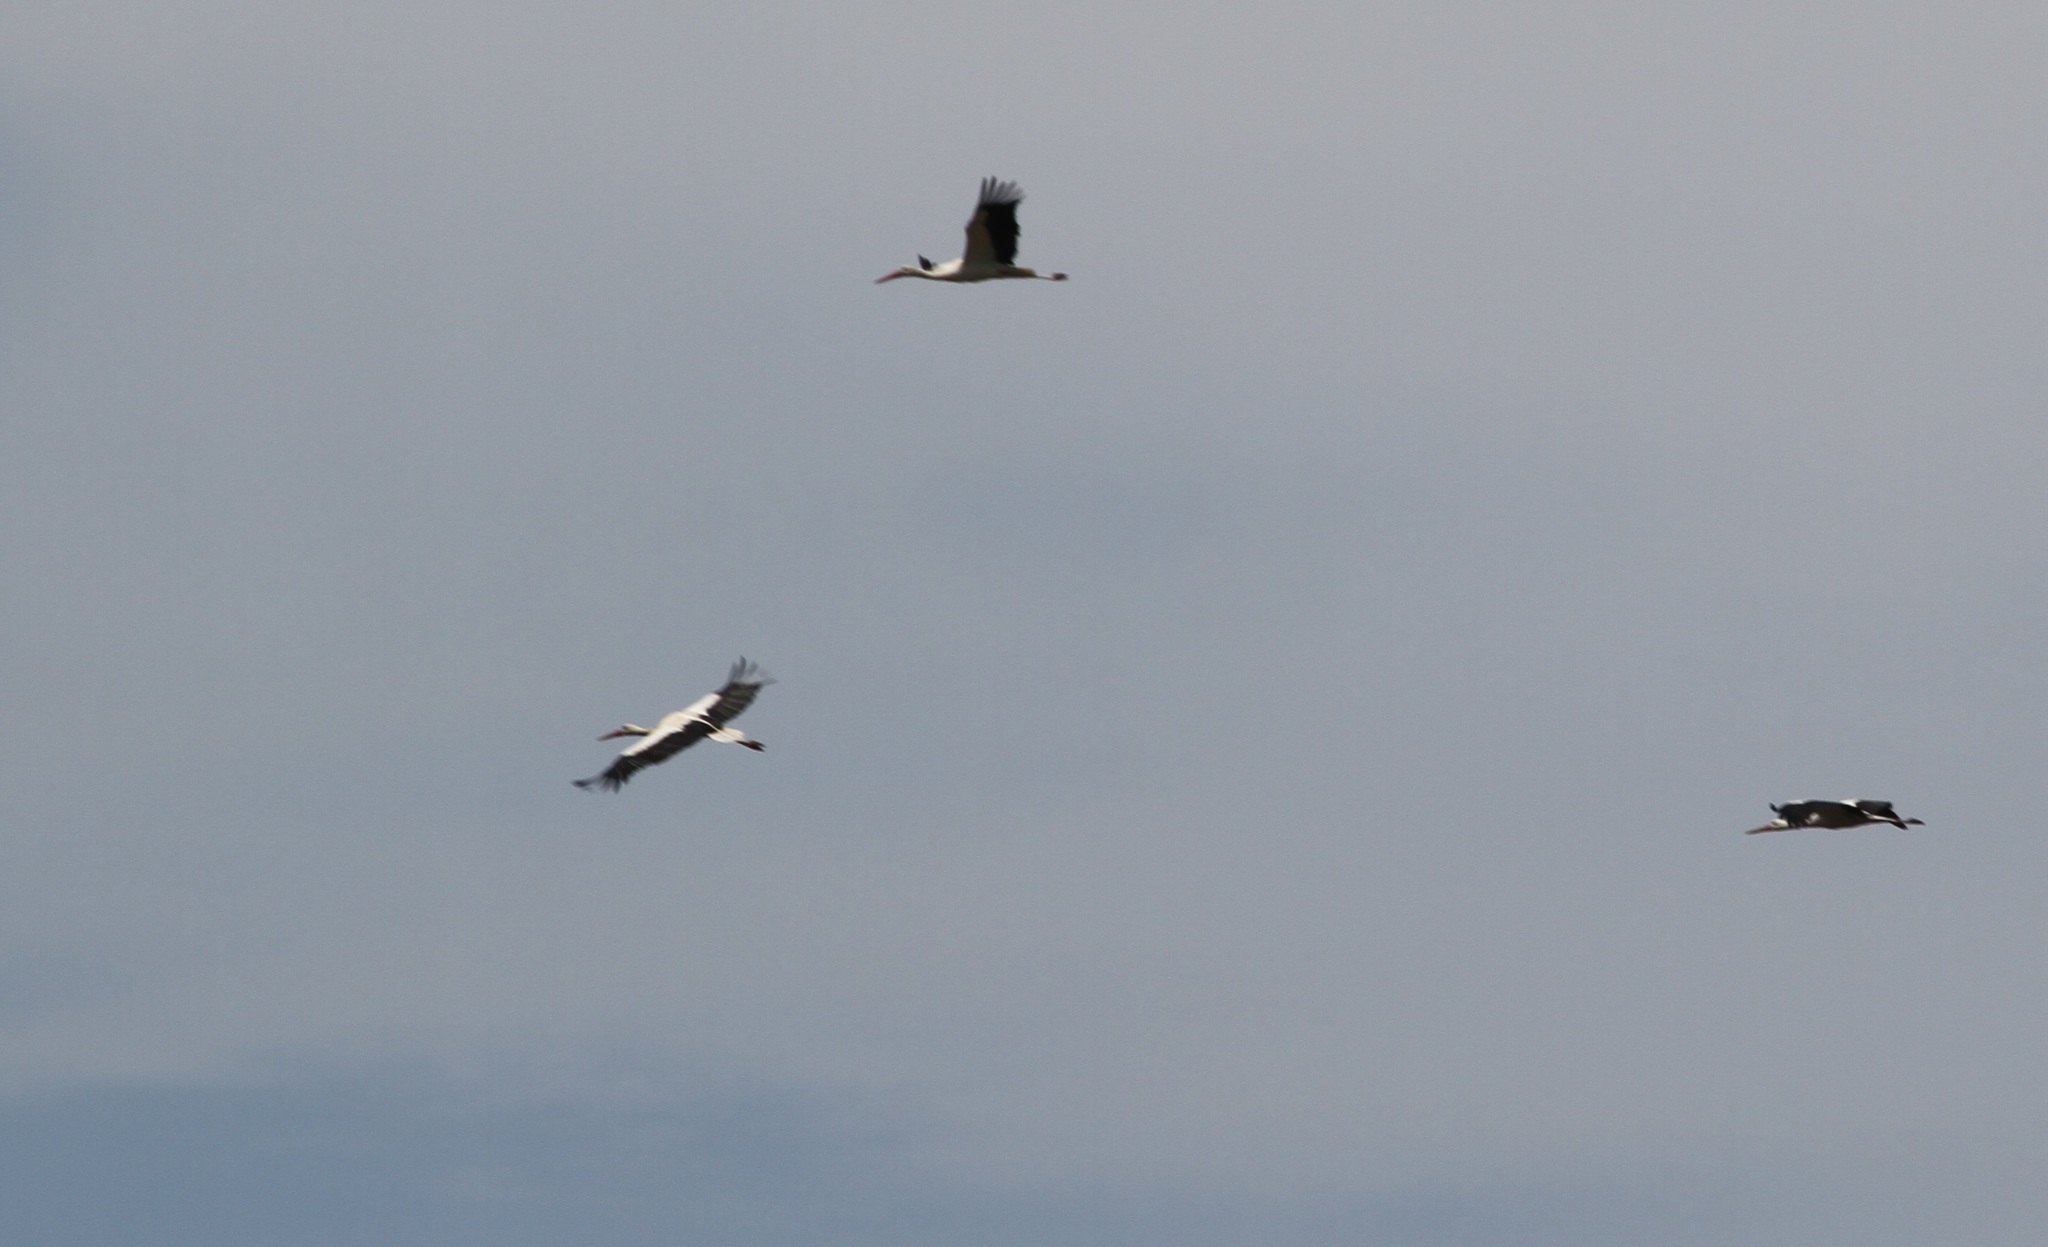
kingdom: Animalia
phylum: Chordata
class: Aves
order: Ciconiiformes
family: Ciconiidae
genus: Ciconia
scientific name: Ciconia ciconia
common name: White stork
